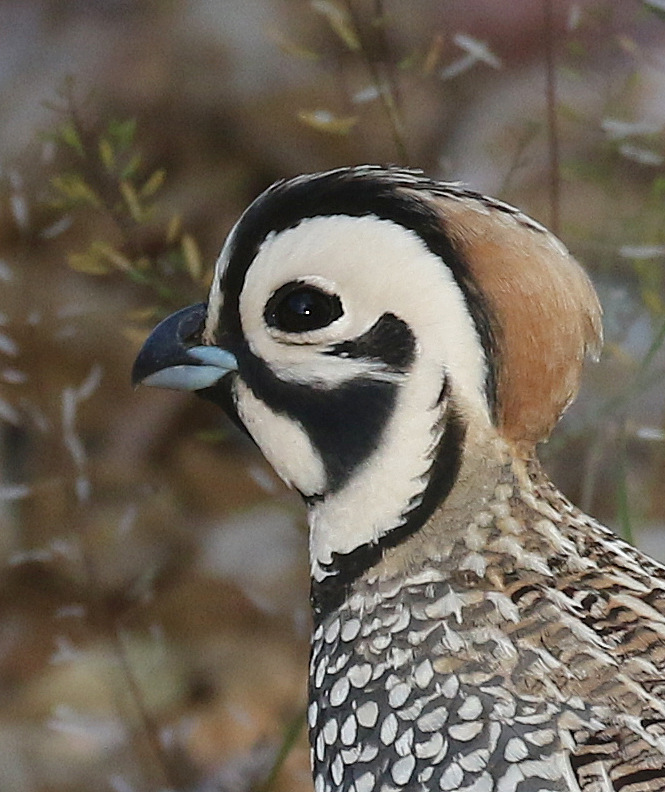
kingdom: Animalia
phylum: Chordata
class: Aves
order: Galliformes
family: Odontophoridae
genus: Cyrtonyx
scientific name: Cyrtonyx montezumae
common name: Montezuma quail
